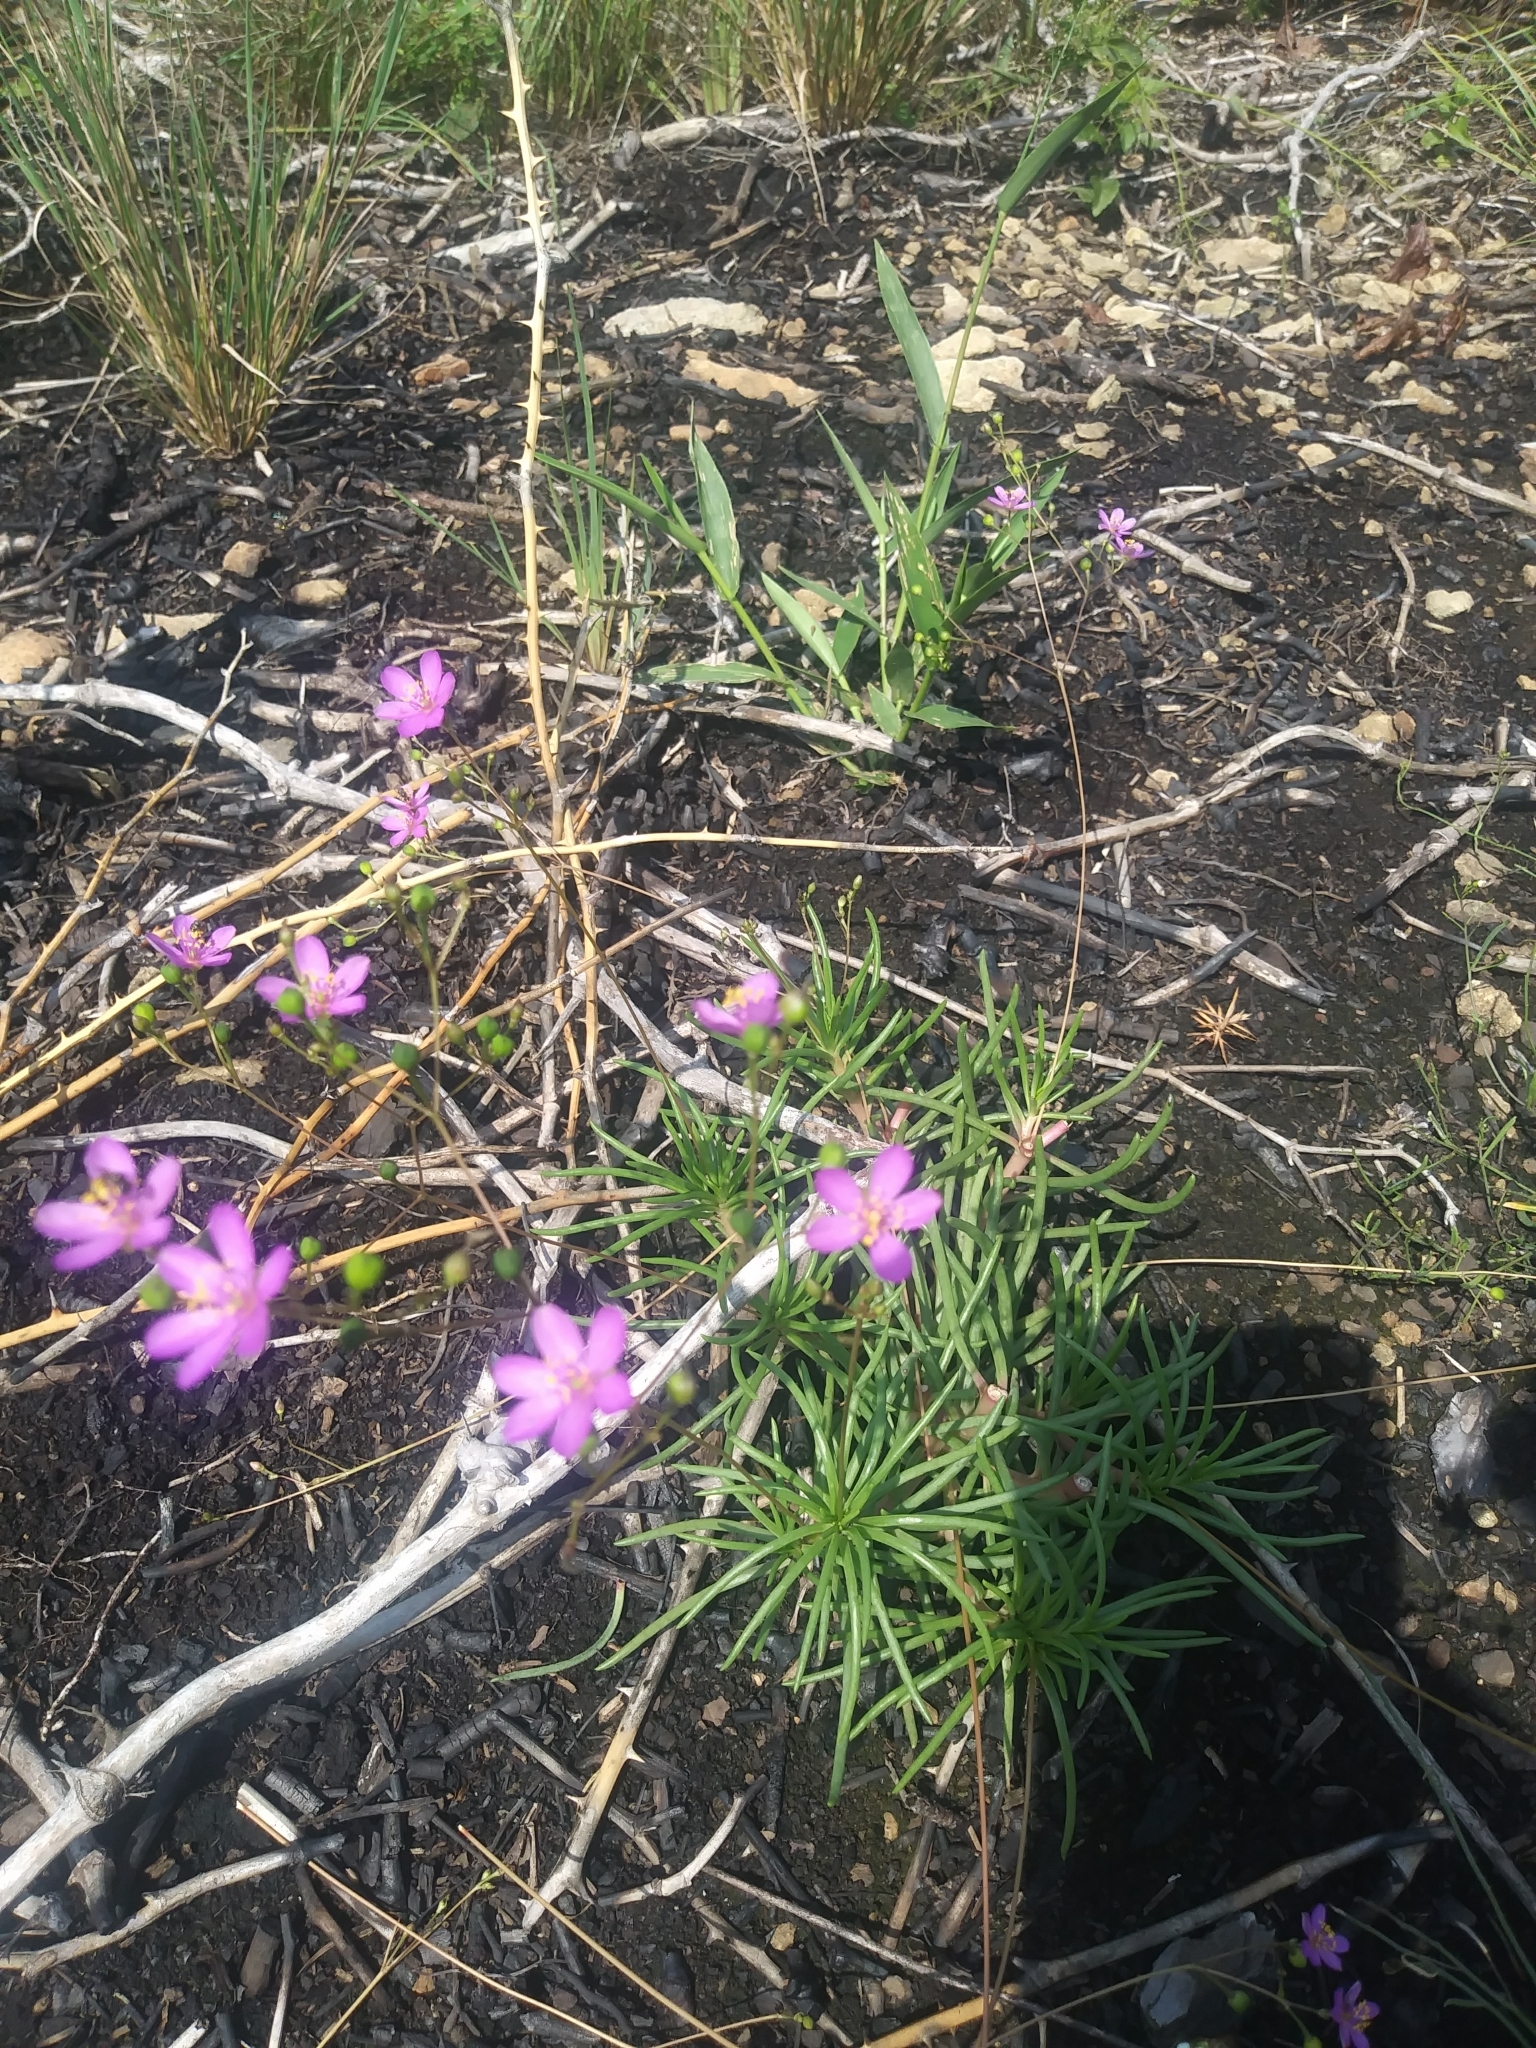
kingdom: Plantae
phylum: Tracheophyta
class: Magnoliopsida
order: Caryophyllales
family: Montiaceae
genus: Phemeranthus
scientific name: Phemeranthus teretifolius
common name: Quill fameflower
